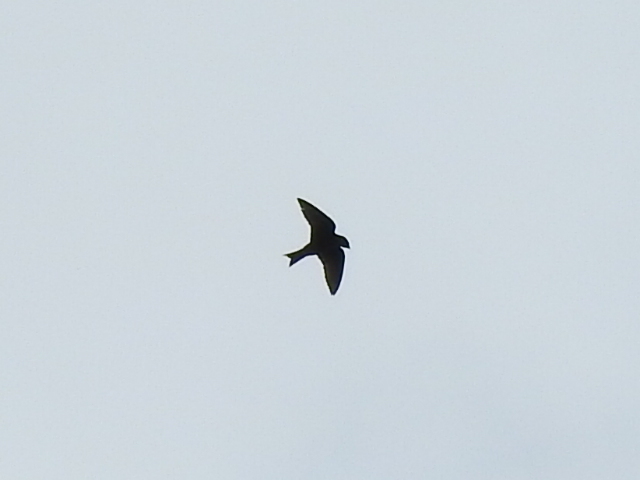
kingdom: Animalia
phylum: Chordata
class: Aves
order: Passeriformes
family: Hirundinidae
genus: Progne
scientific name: Progne subis
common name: Purple martin
